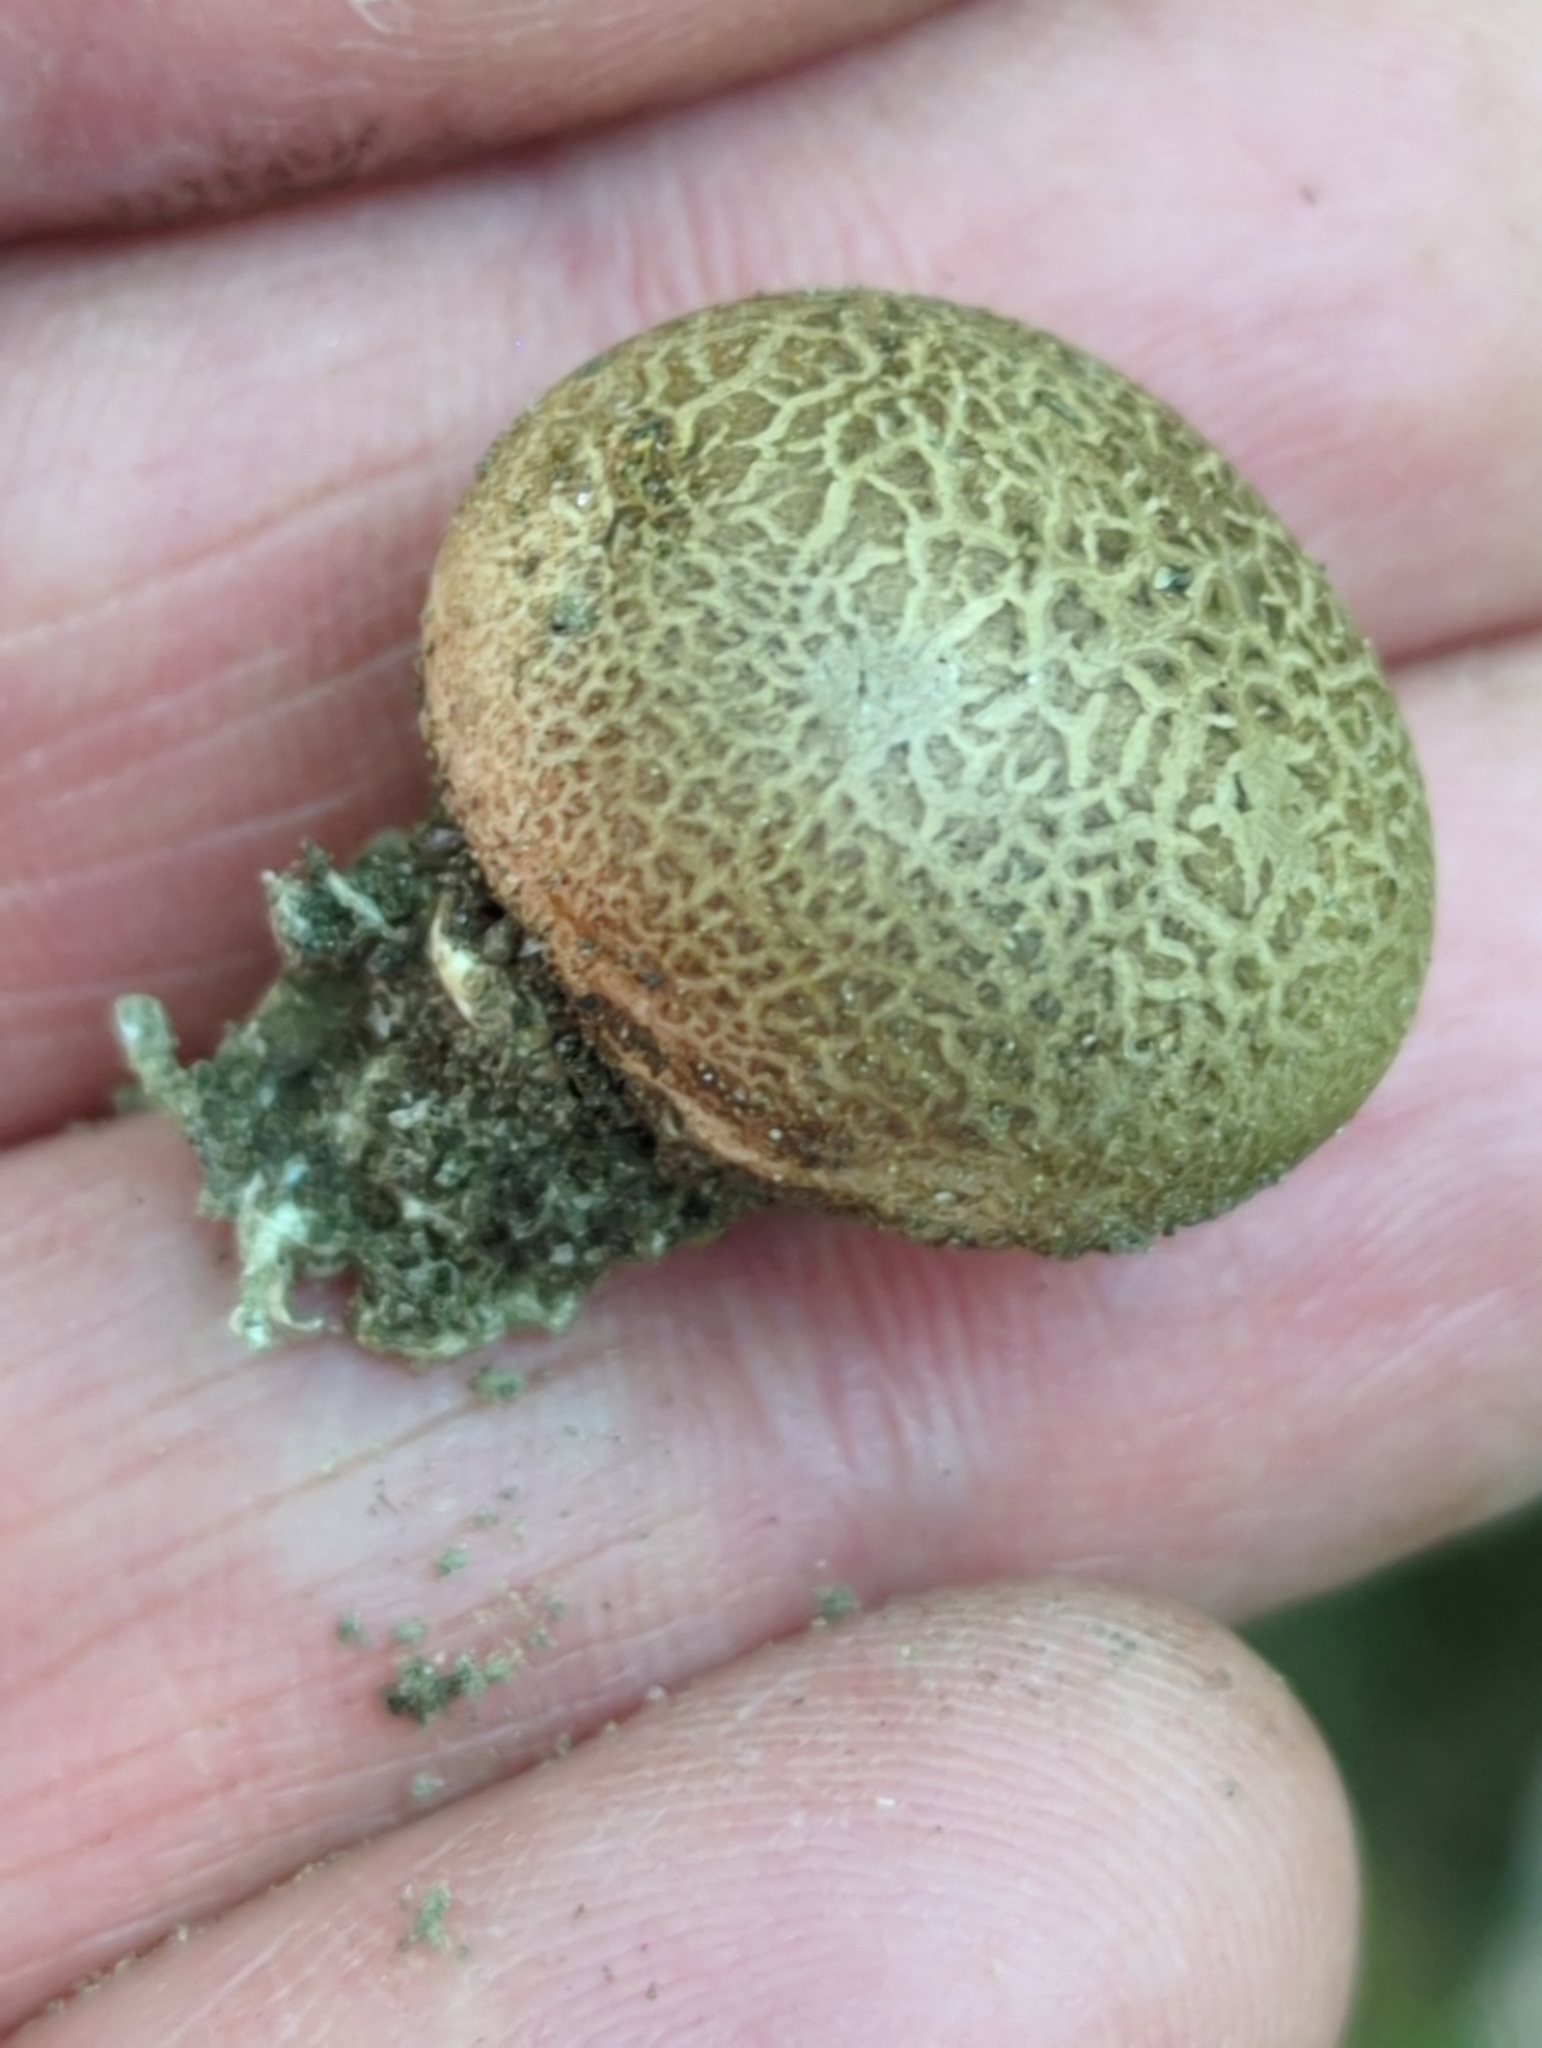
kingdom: Fungi
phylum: Basidiomycota
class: Agaricomycetes
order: Boletales
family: Sclerodermataceae
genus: Scleroderma
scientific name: Scleroderma areolatum
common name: Leopard earthball
